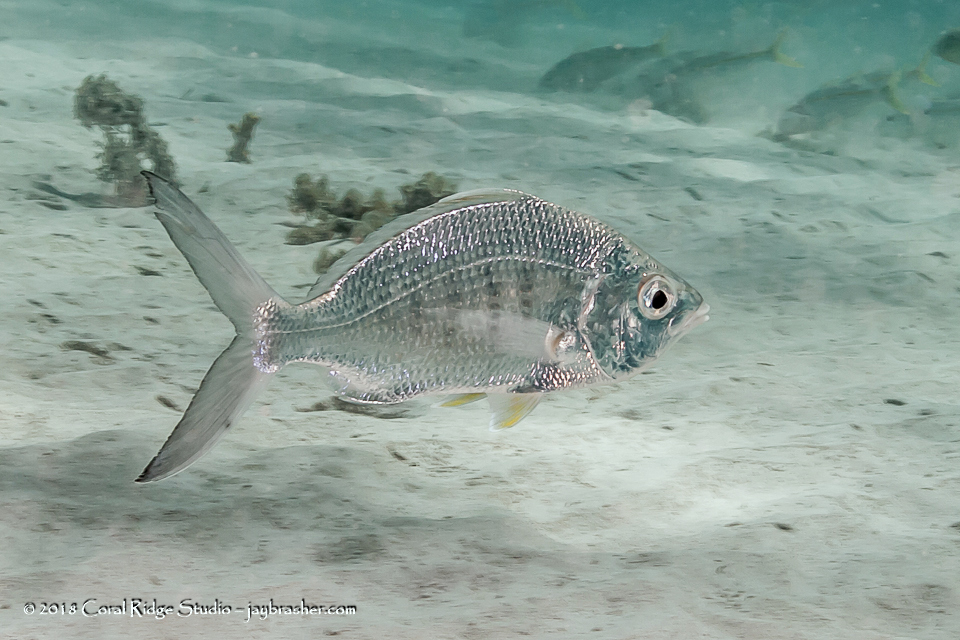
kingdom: Animalia
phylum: Chordata
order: Perciformes
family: Gerreidae
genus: Gerres
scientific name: Gerres cinereus
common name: Hedow
